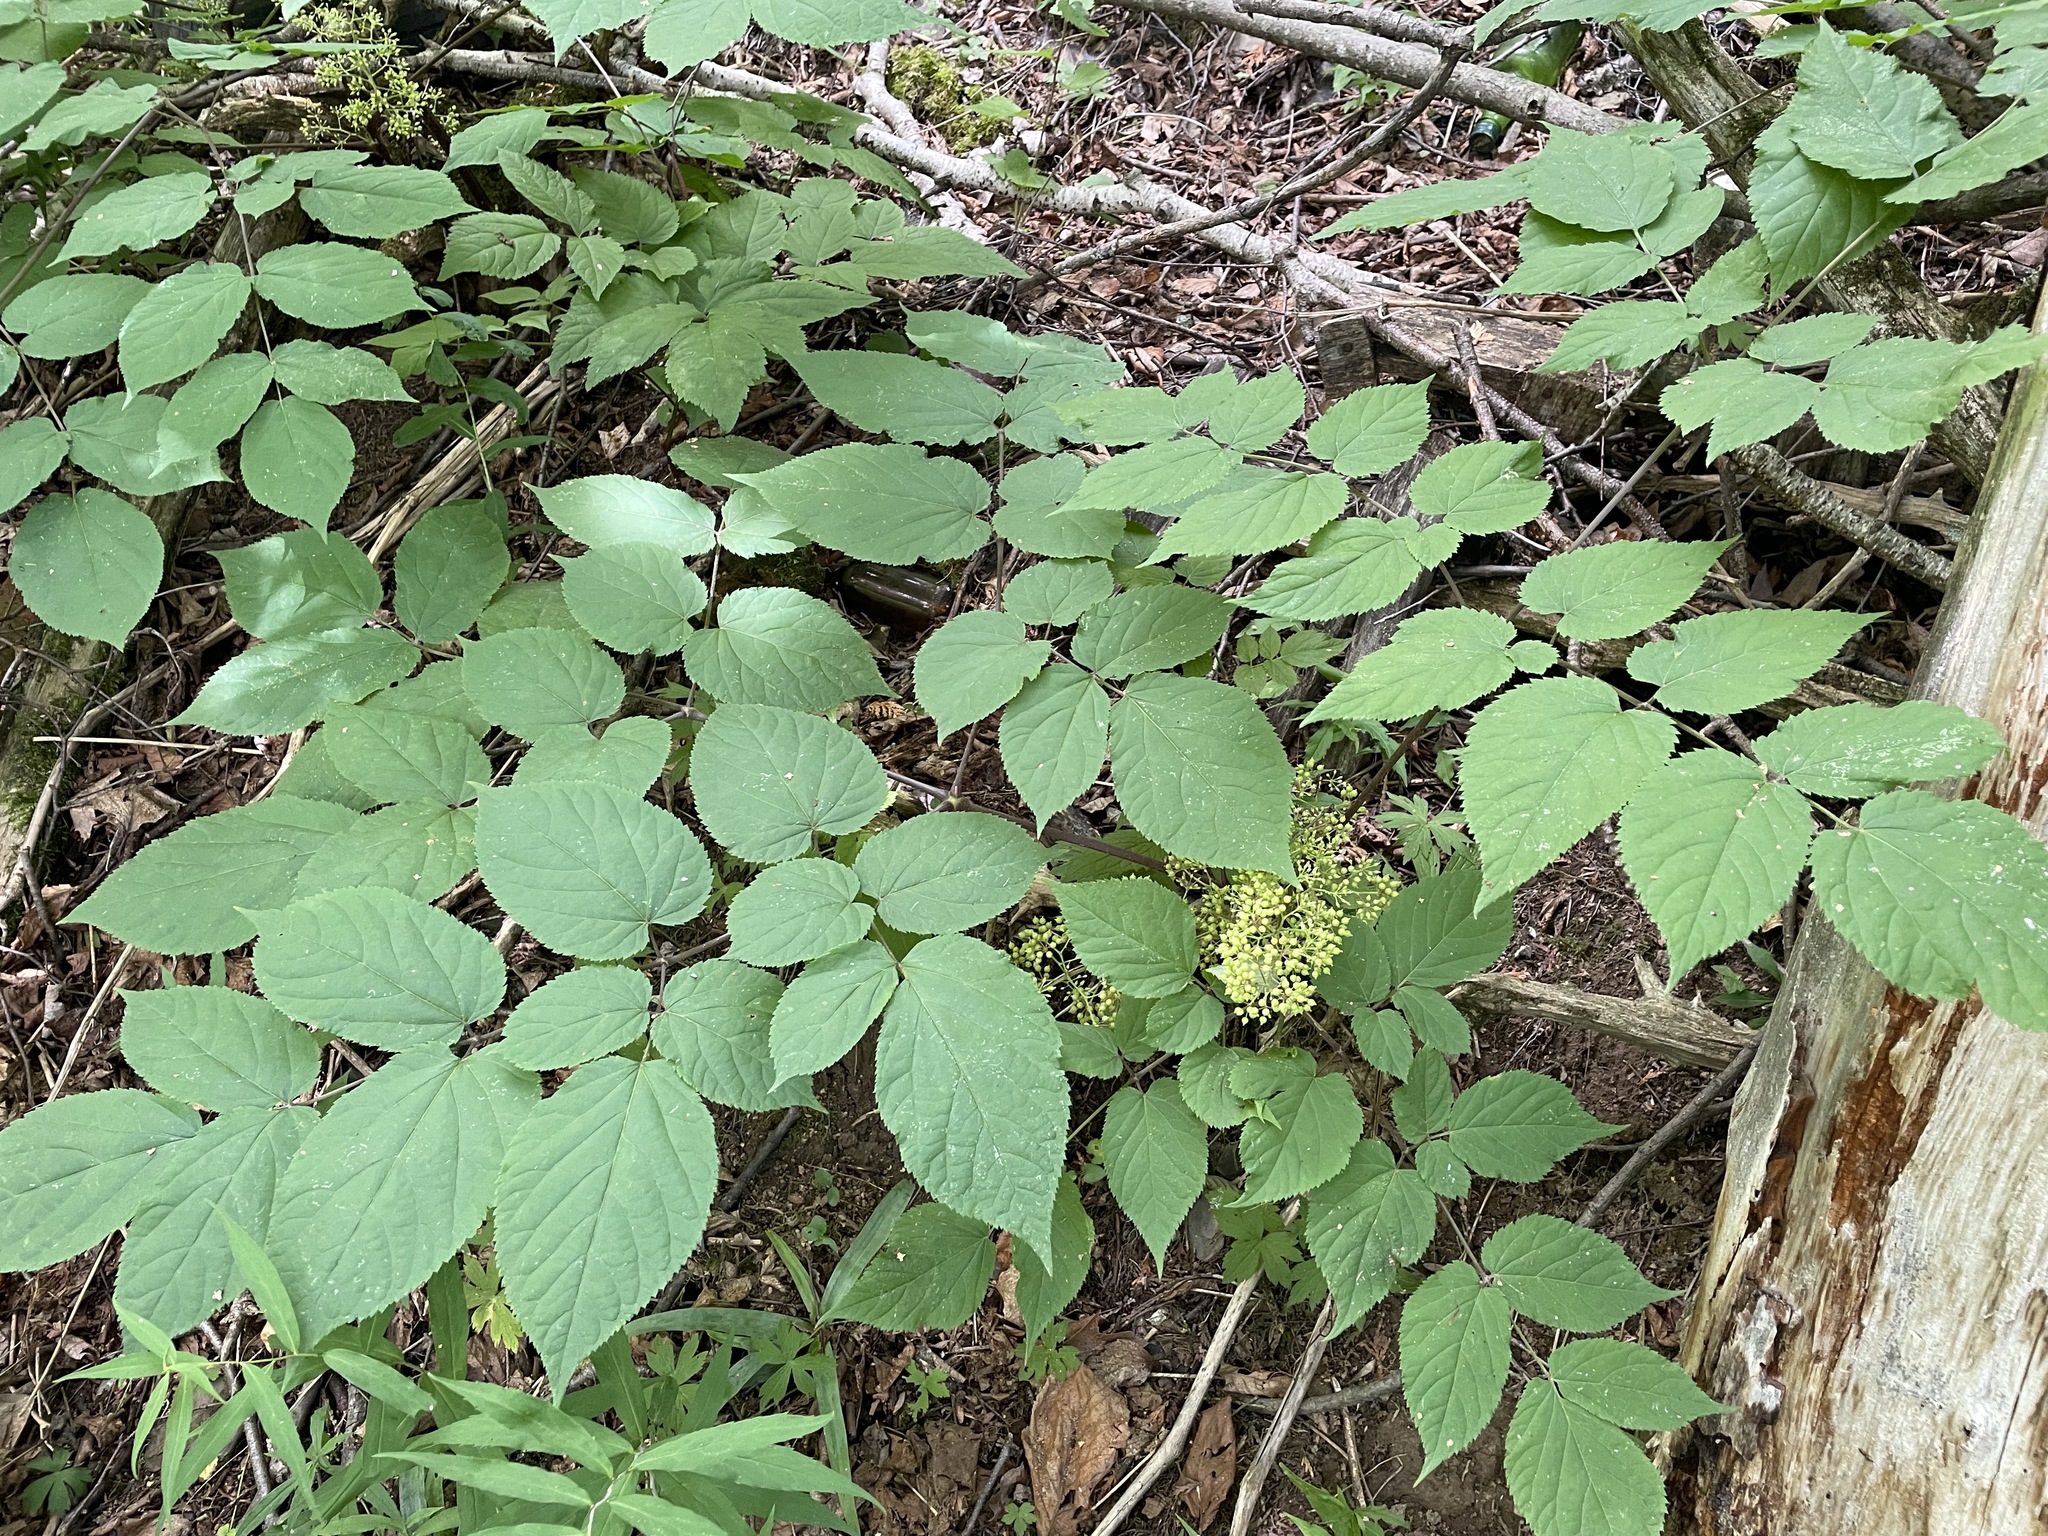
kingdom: Plantae
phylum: Tracheophyta
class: Magnoliopsida
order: Apiales
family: Araliaceae
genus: Aralia
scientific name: Aralia racemosa
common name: American-spikenard
